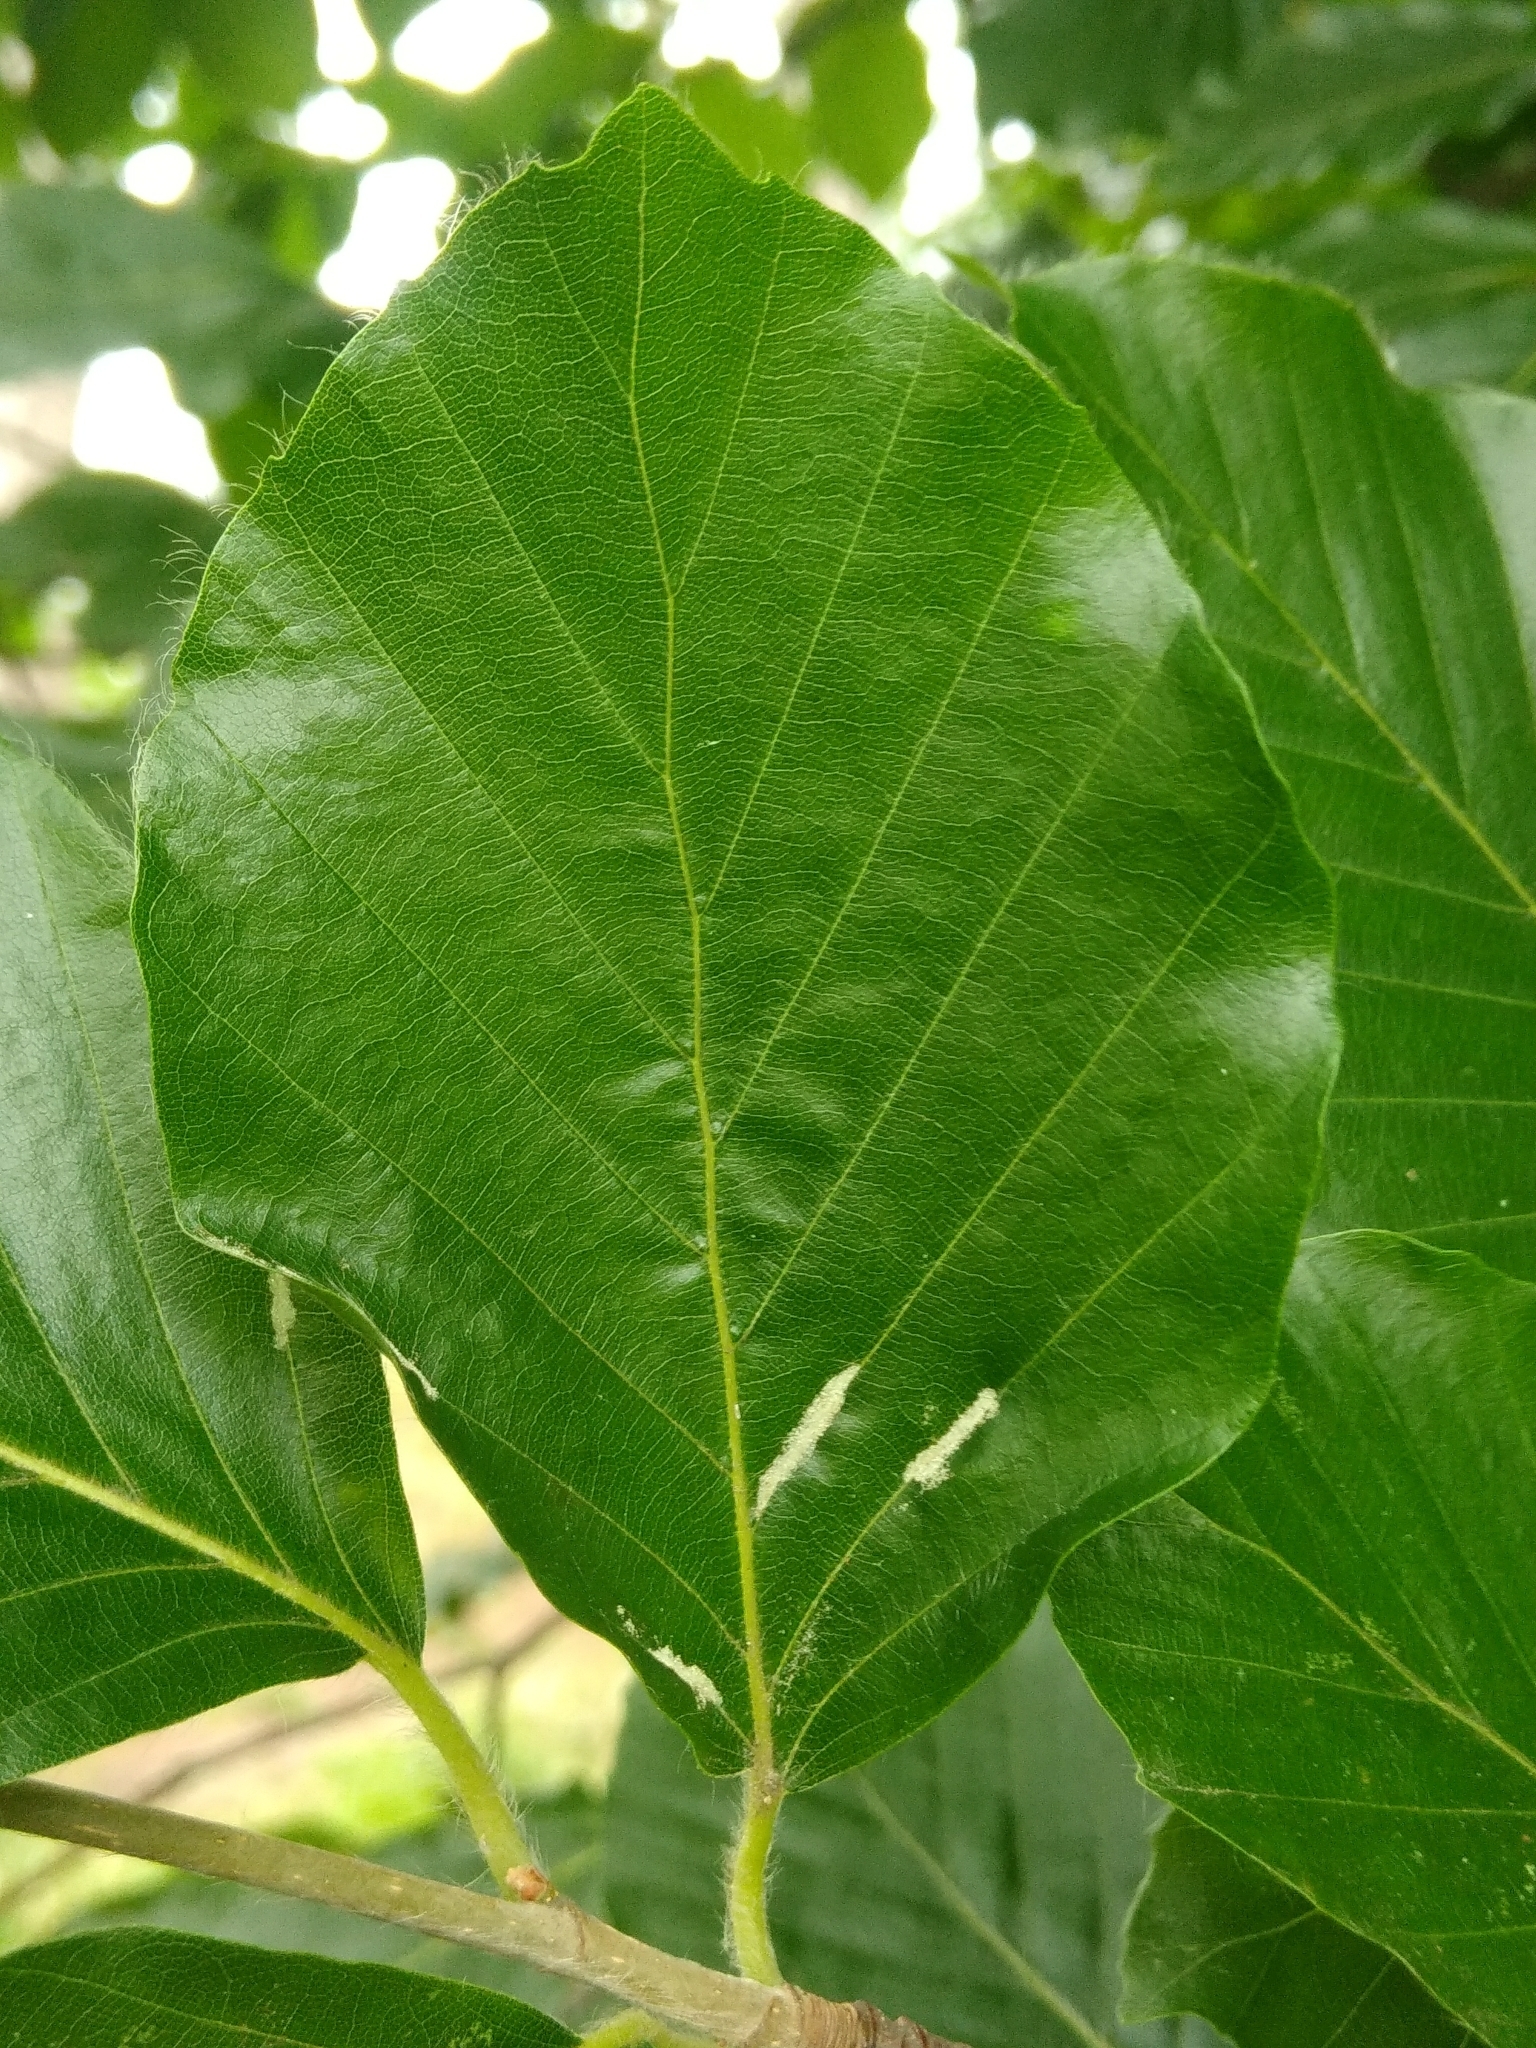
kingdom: Animalia
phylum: Arthropoda
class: Arachnida
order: Trombidiformes
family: Eriophyidae
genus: Aceria
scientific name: Aceria nervisequa
